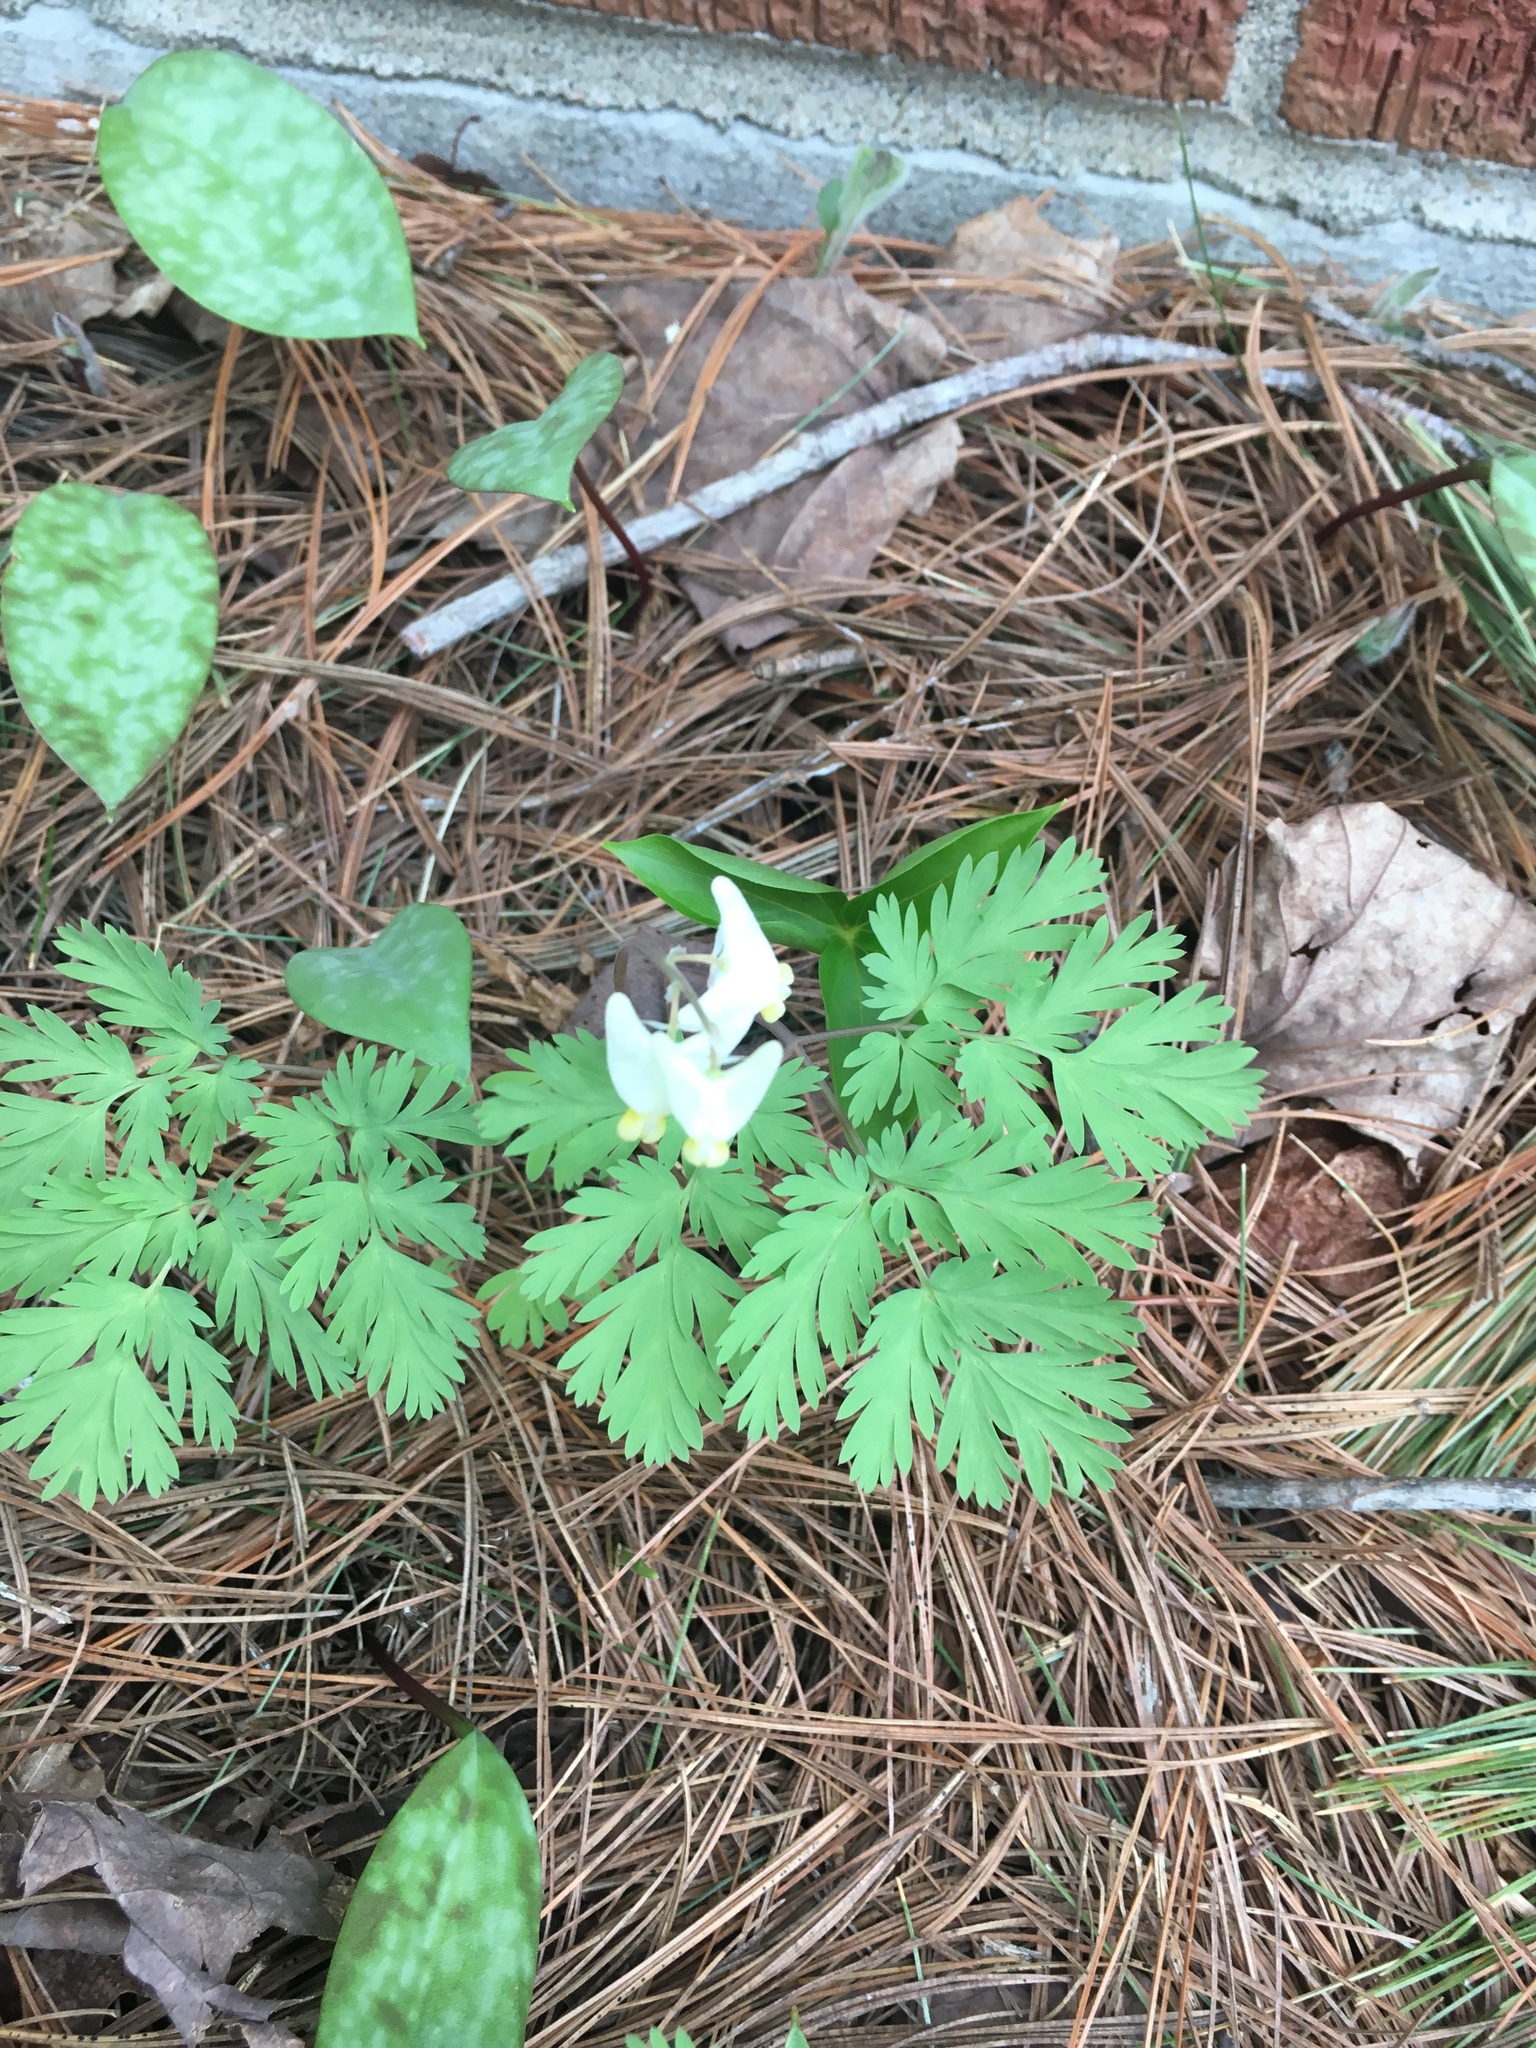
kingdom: Plantae
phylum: Tracheophyta
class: Magnoliopsida
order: Ranunculales
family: Papaveraceae
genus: Dicentra
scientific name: Dicentra cucullaria
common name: Dutchman's breeches
